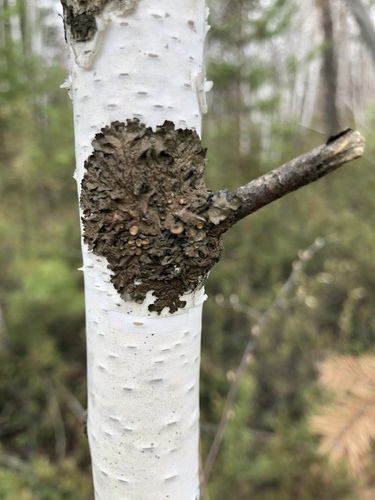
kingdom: Fungi
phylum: Ascomycota
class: Lecanoromycetes
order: Lecanorales
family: Parmeliaceae
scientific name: Parmeliaceae
